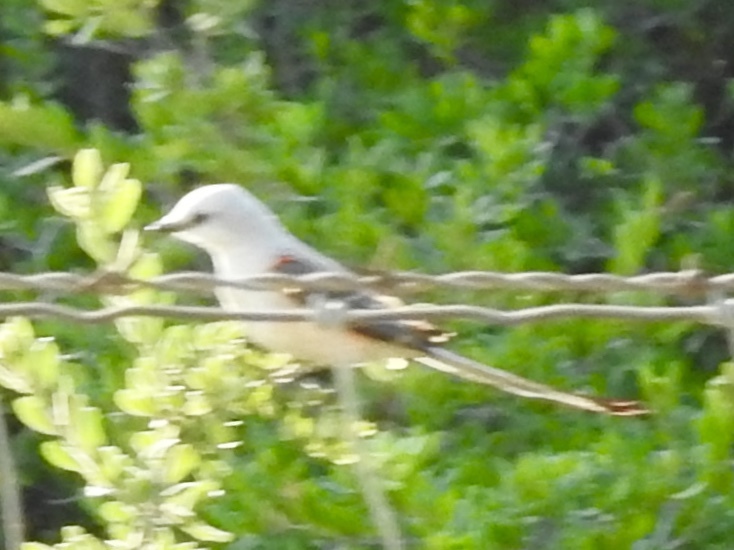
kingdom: Animalia
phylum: Chordata
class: Aves
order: Passeriformes
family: Tyrannidae
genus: Tyrannus
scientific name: Tyrannus forficatus
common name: Scissor-tailed flycatcher
